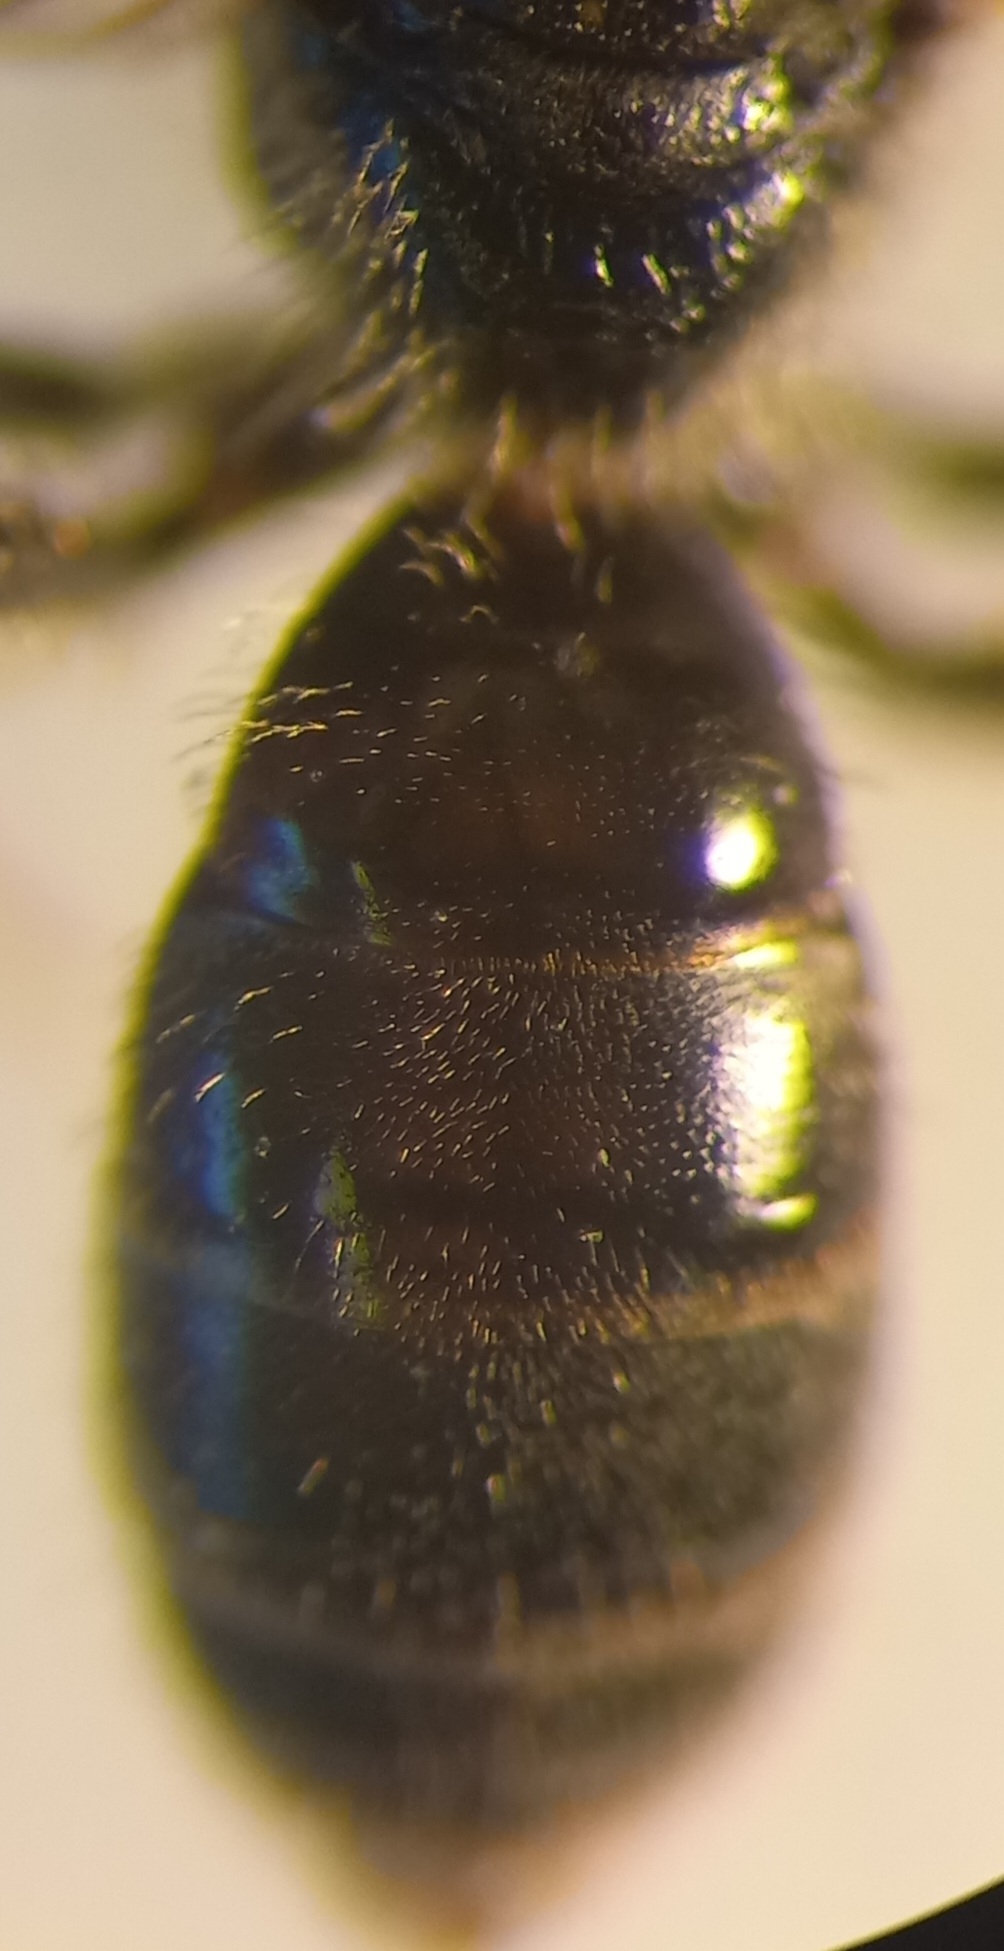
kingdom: Animalia
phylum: Arthropoda
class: Insecta
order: Hymenoptera
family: Halictidae
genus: Lasioglossum
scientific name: Lasioglossum pauxillum
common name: Lobe-spurred furrow bee
